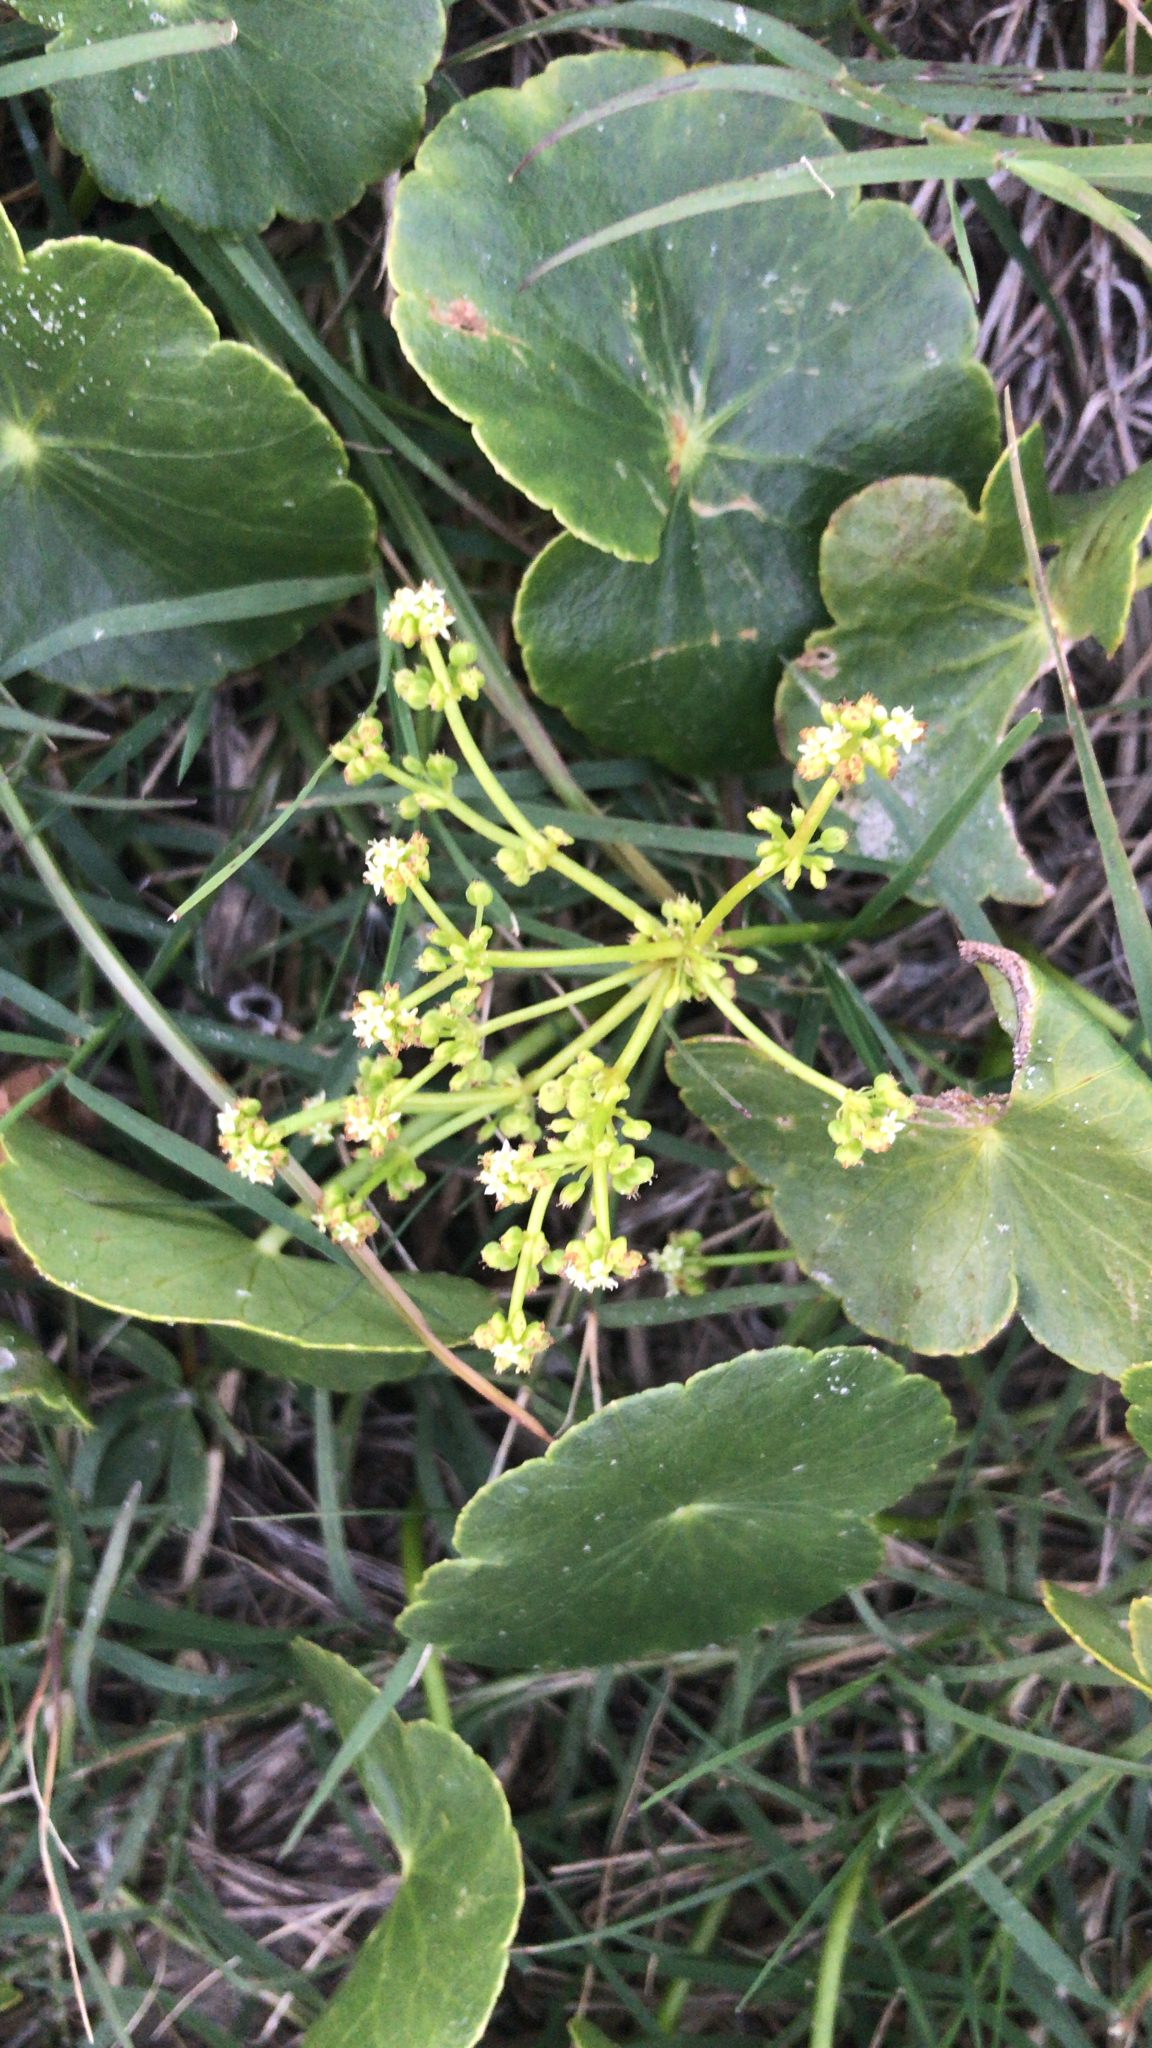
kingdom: Plantae
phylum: Tracheophyta
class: Magnoliopsida
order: Apiales
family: Araliaceae
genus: Hydrocotyle
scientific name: Hydrocotyle bonariensis
